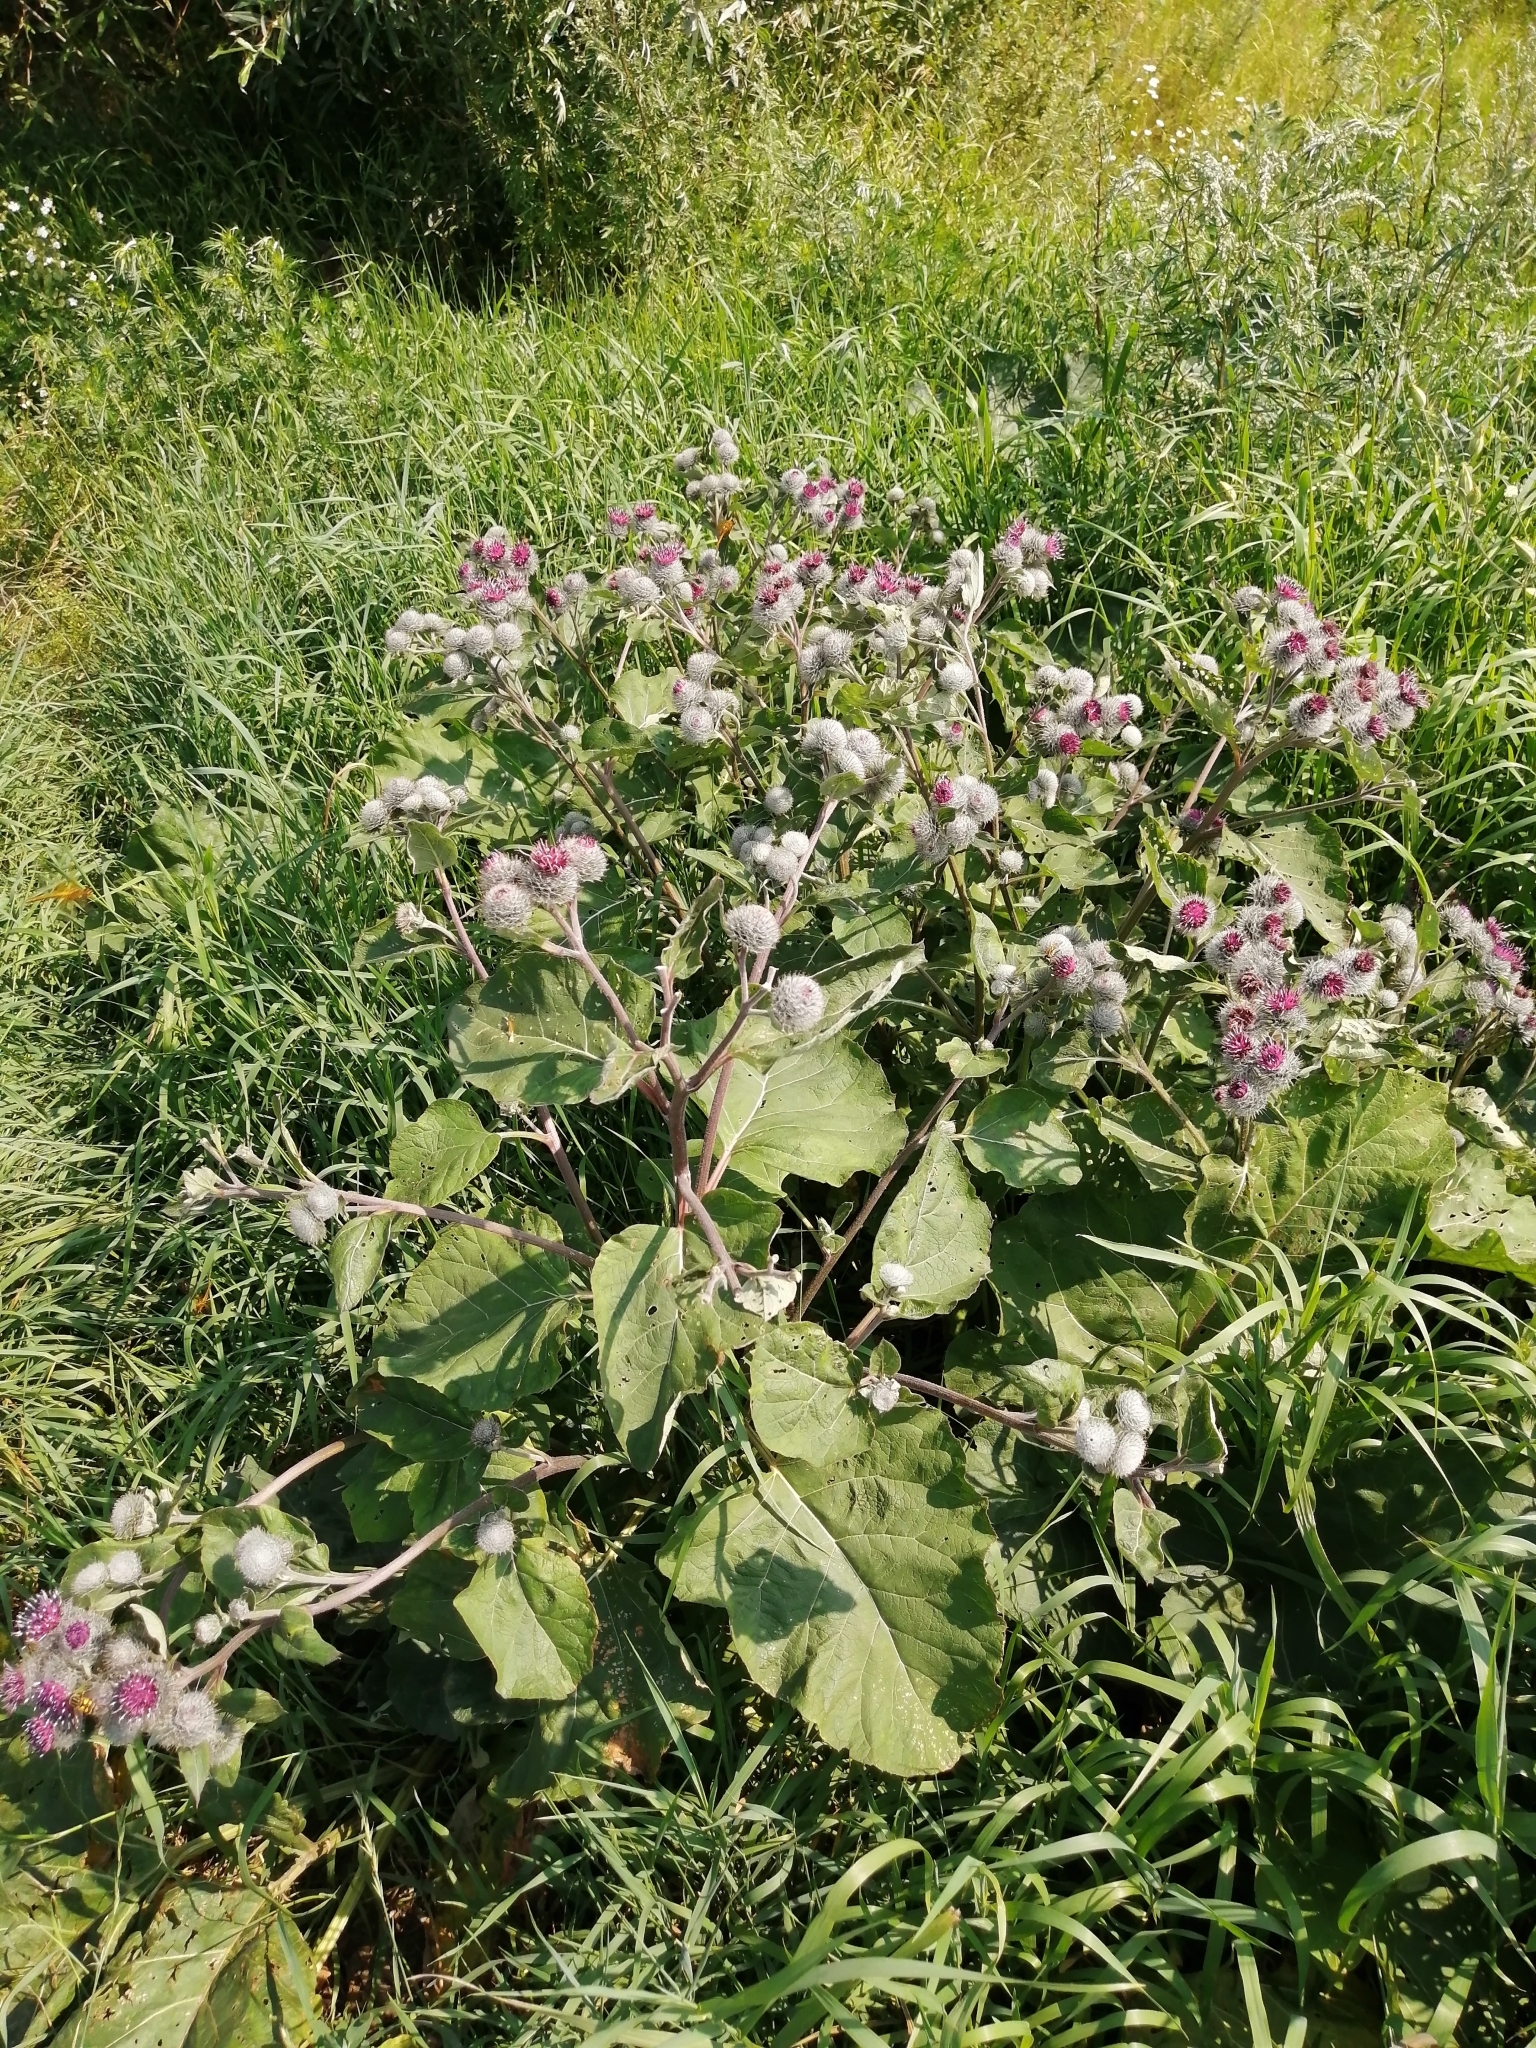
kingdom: Plantae
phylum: Tracheophyta
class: Magnoliopsida
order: Asterales
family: Asteraceae
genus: Arctium
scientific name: Arctium tomentosum
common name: Woolly burdock
